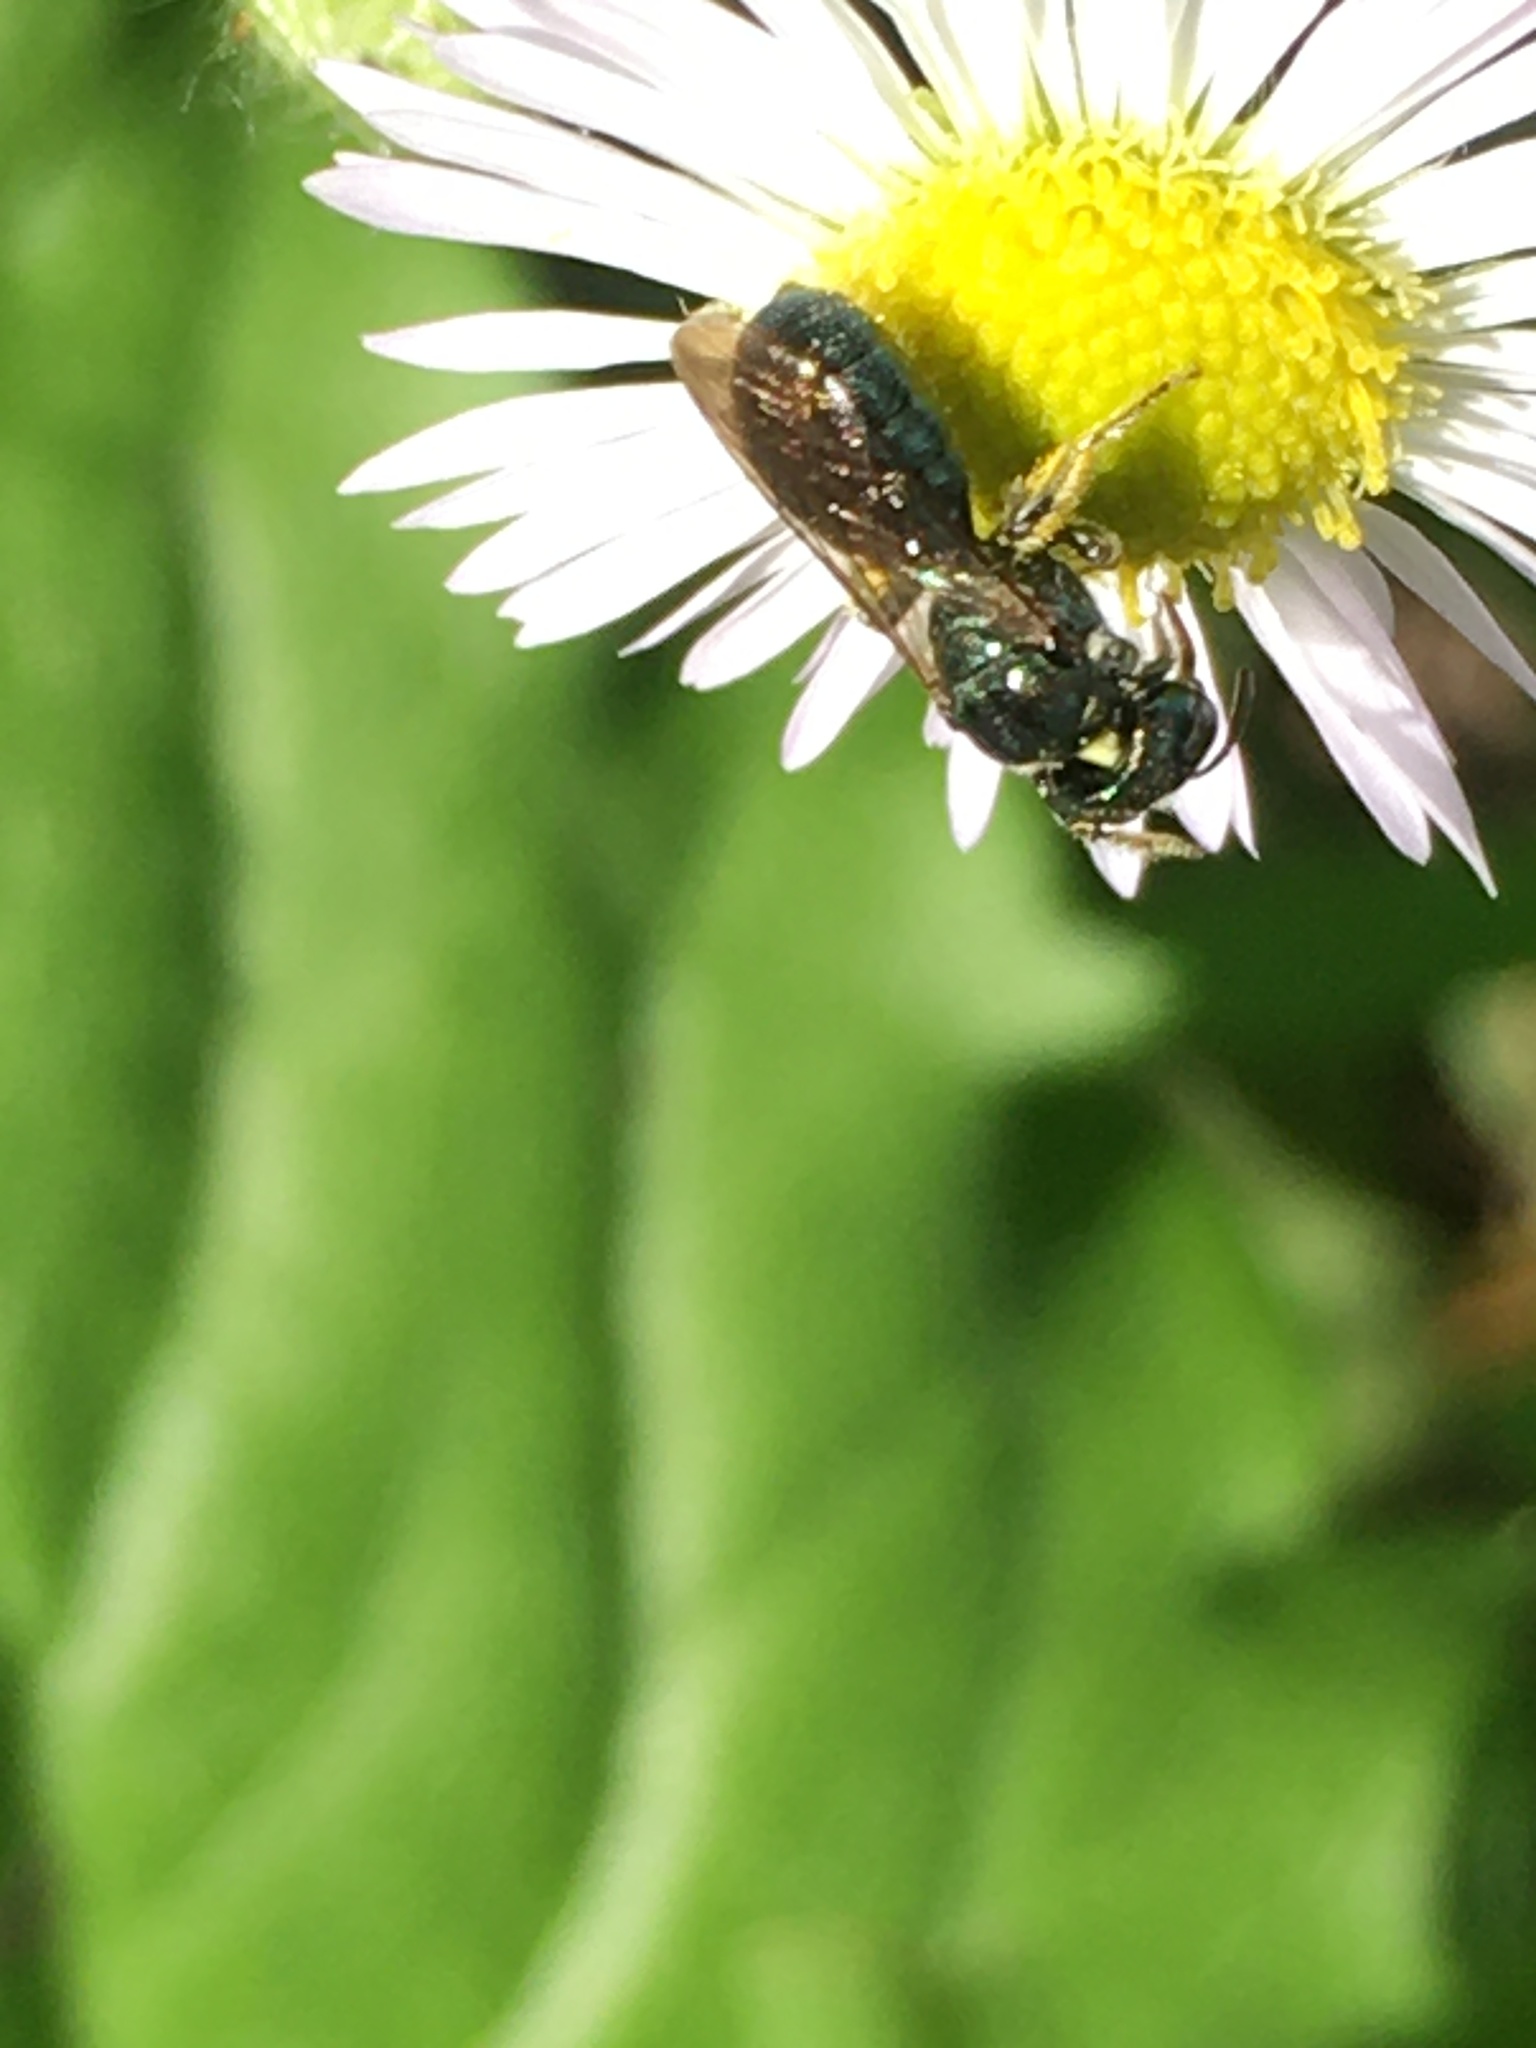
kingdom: Animalia
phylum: Arthropoda
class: Insecta
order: Hymenoptera
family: Apidae
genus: Zadontomerus
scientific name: Zadontomerus
